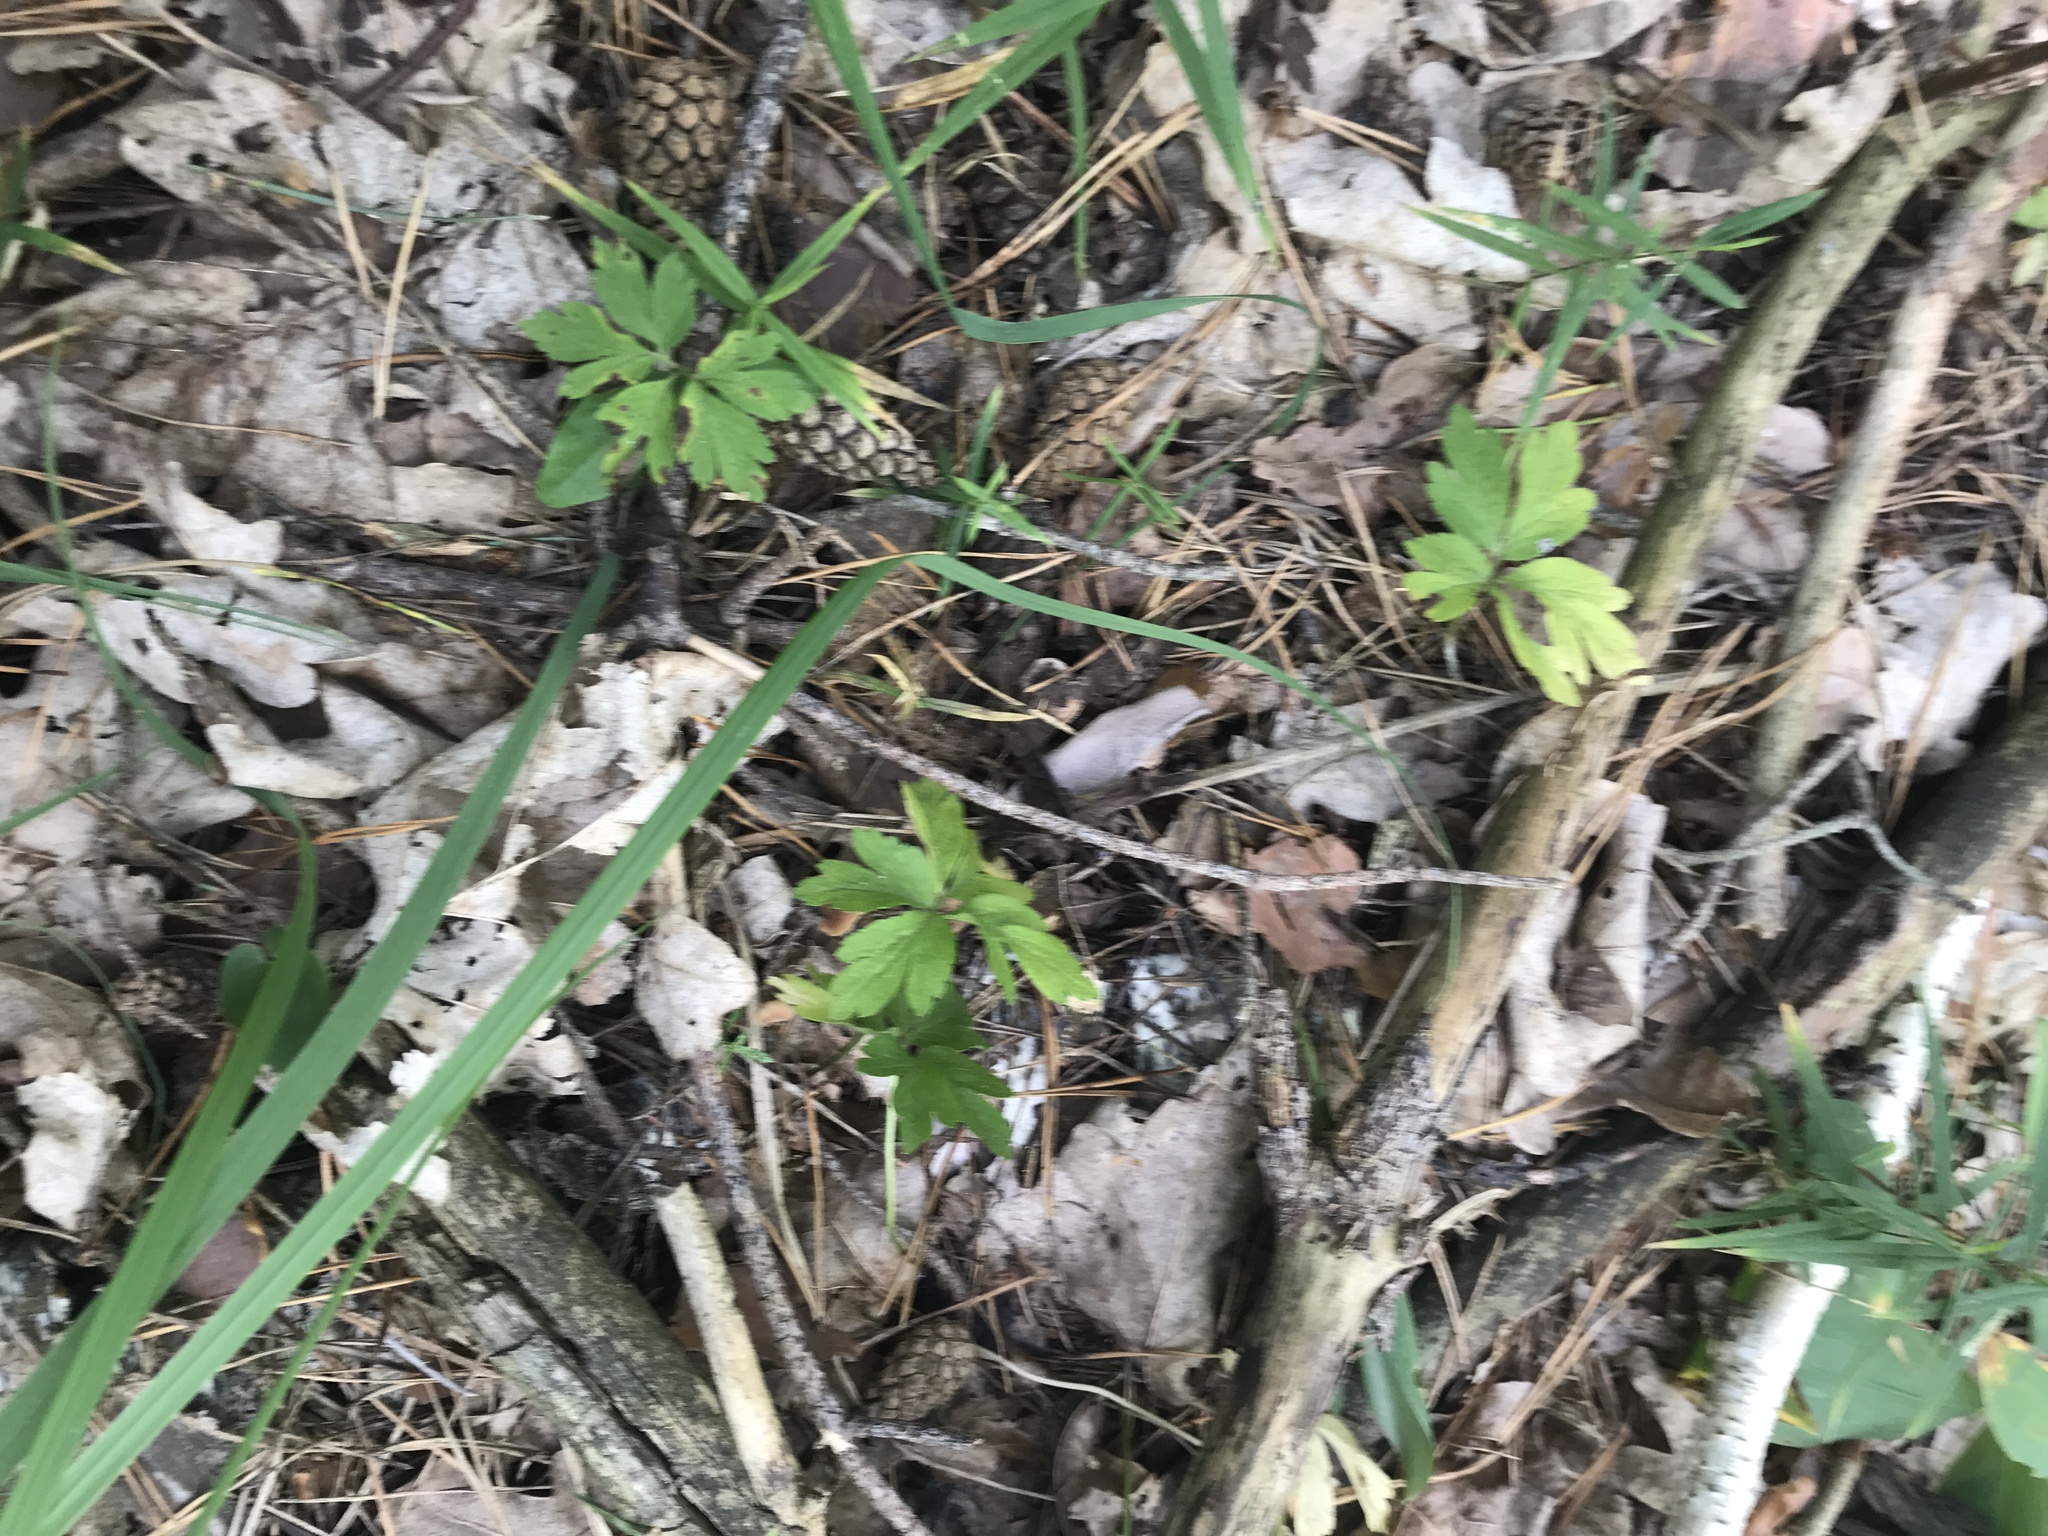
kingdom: Plantae
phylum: Tracheophyta
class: Magnoliopsida
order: Ranunculales
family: Ranunculaceae
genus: Anemone
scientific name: Anemone ranunculoides
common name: Yellow anemone
